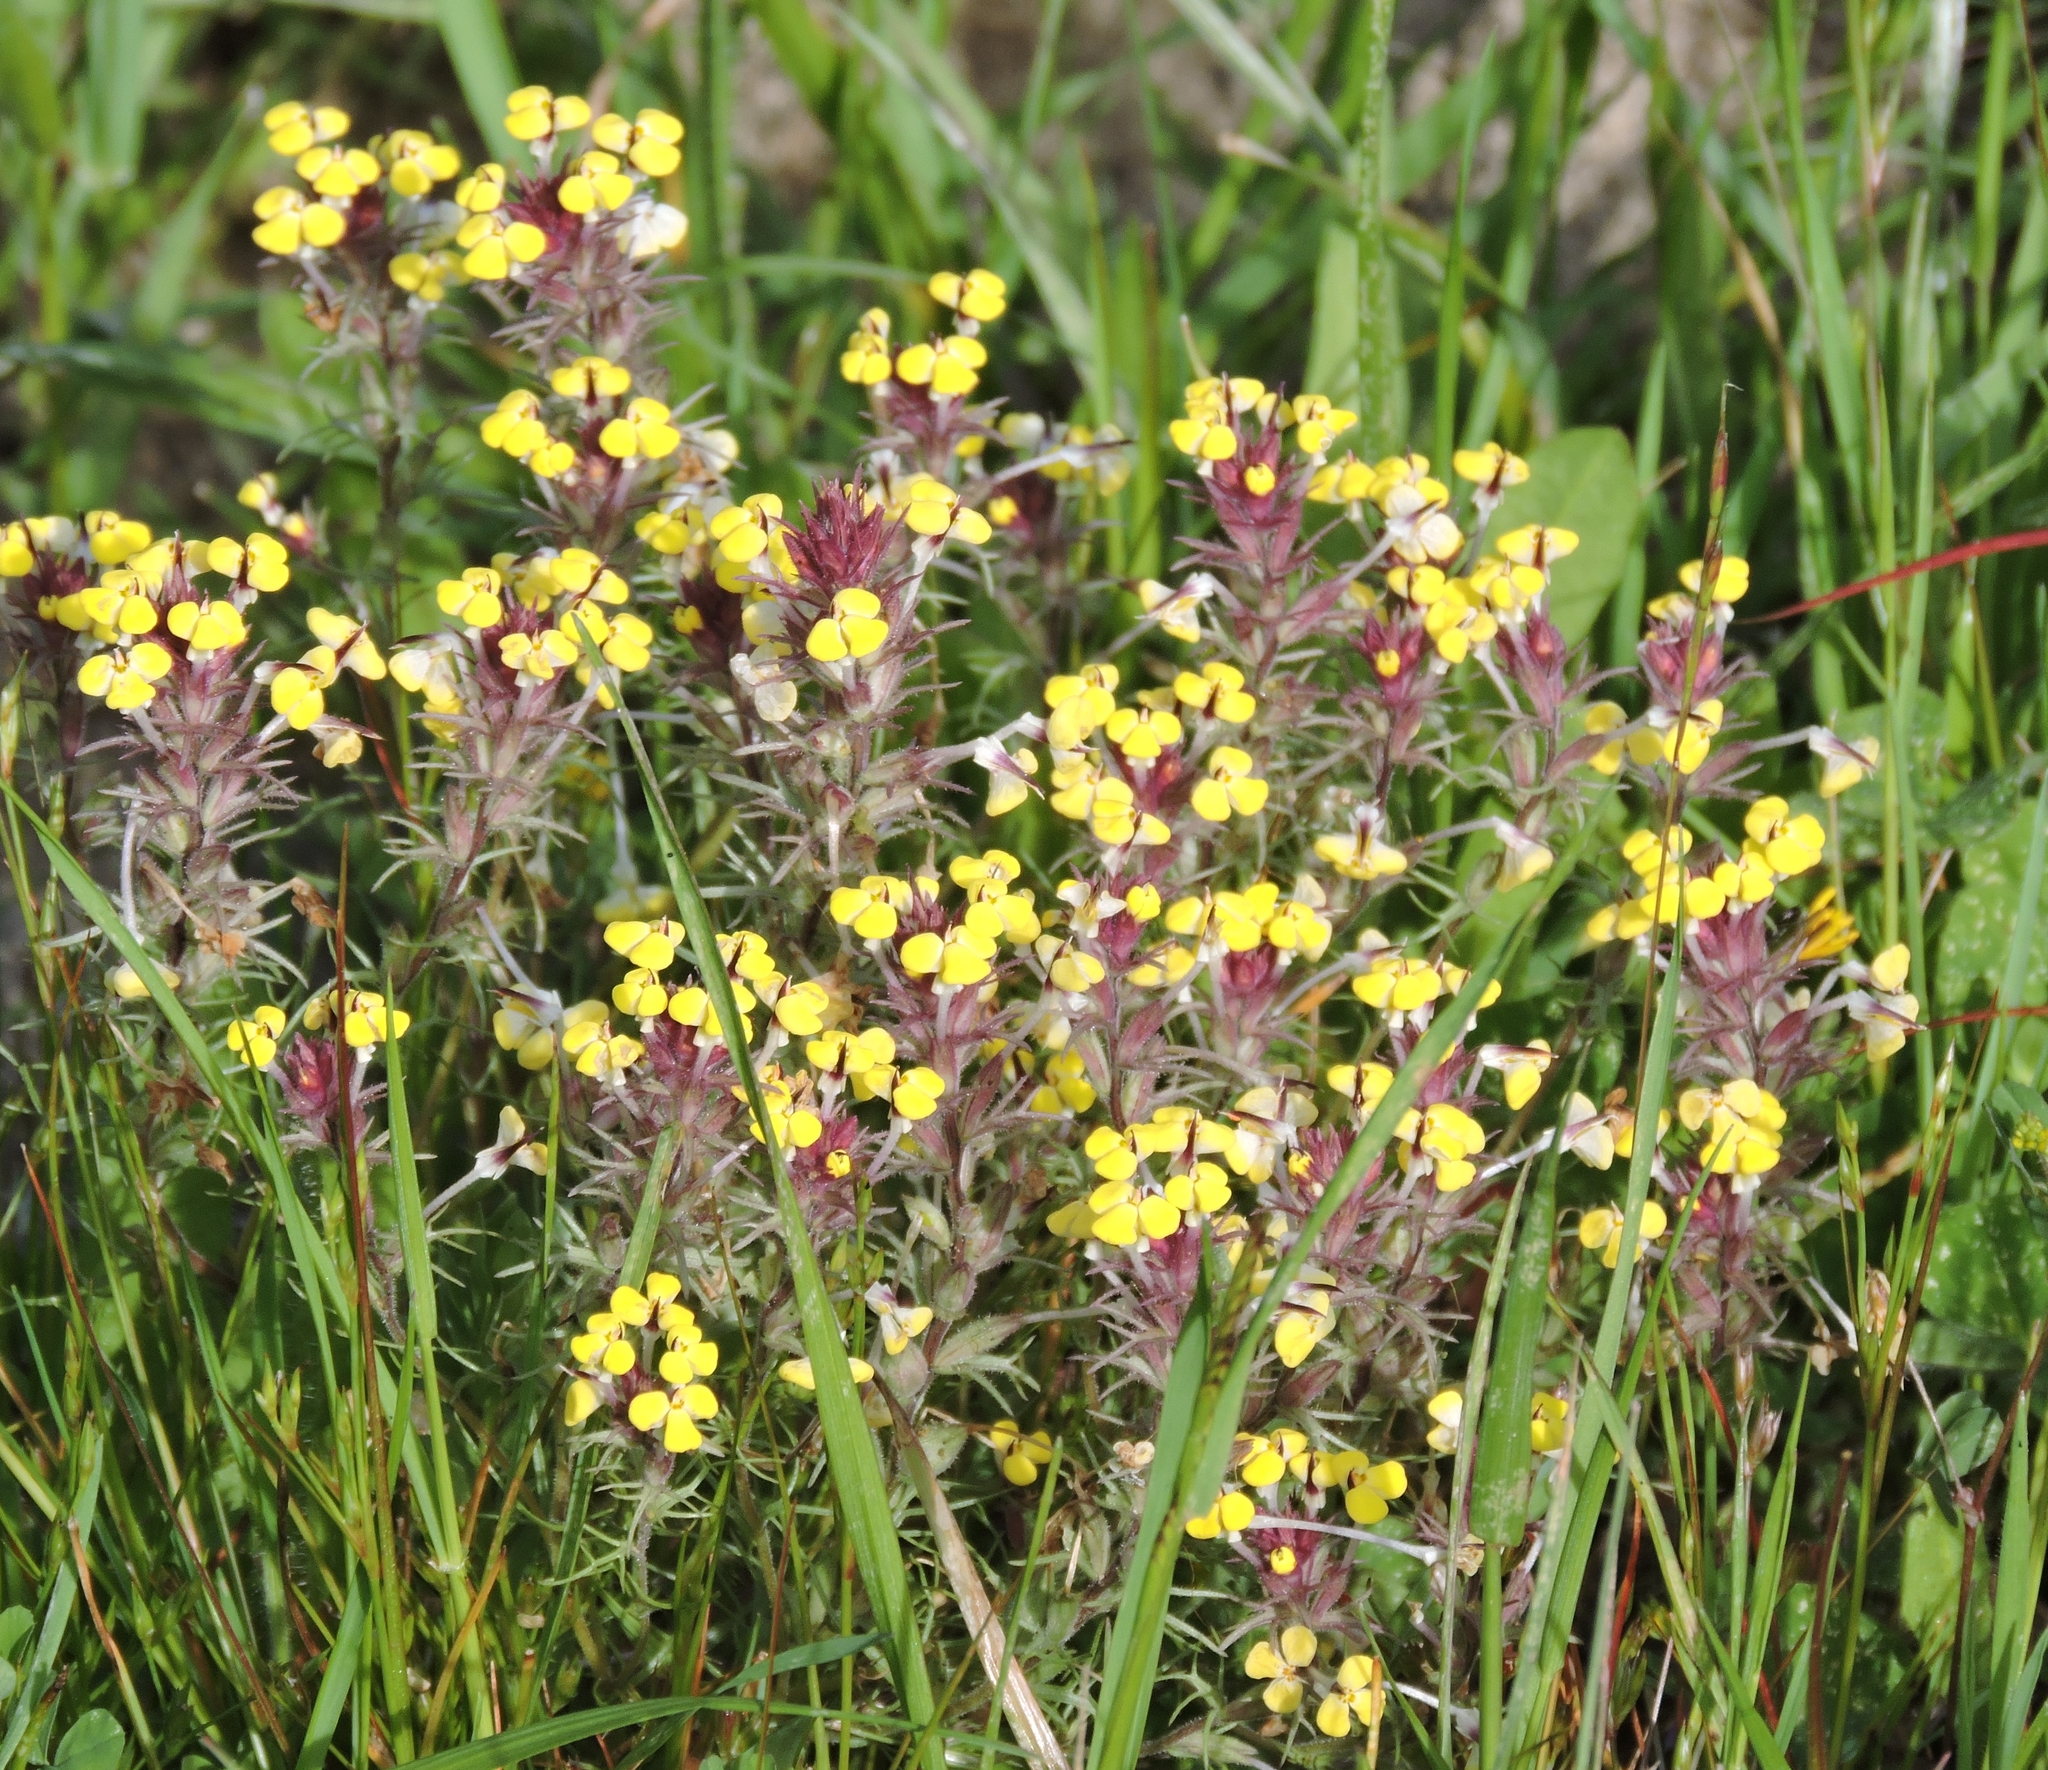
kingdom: Plantae
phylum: Tracheophyta
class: Magnoliopsida
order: Lamiales
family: Orobanchaceae
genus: Triphysaria
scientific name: Triphysaria eriantha
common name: Johnny-tuck
